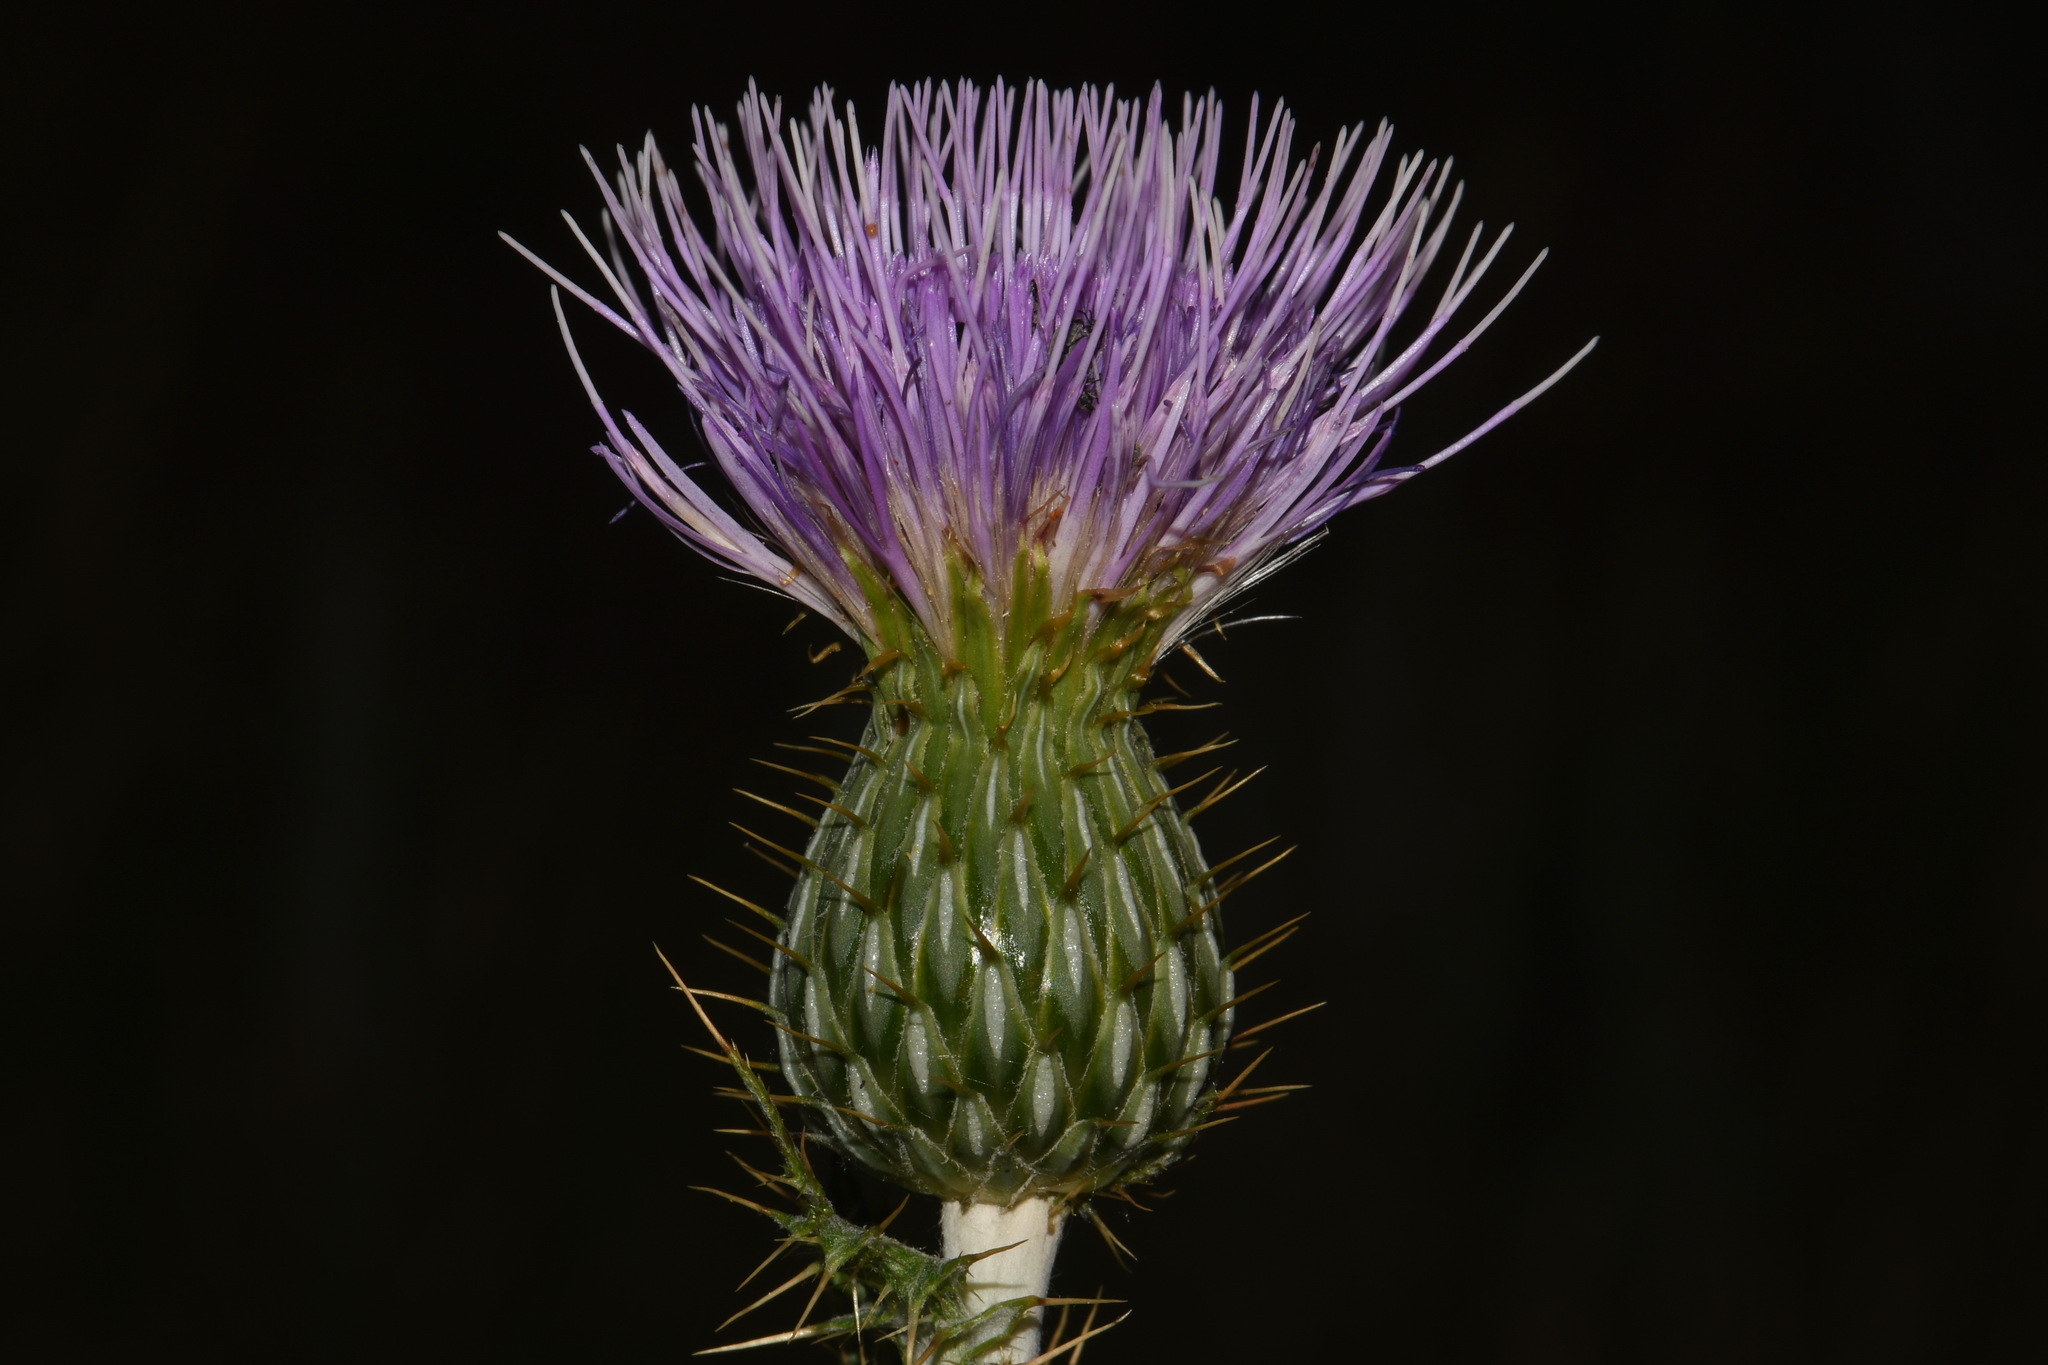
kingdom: Plantae
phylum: Tracheophyta
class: Magnoliopsida
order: Asterales
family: Asteraceae
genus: Cirsium
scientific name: Cirsium undulatum
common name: Pasture thistle
